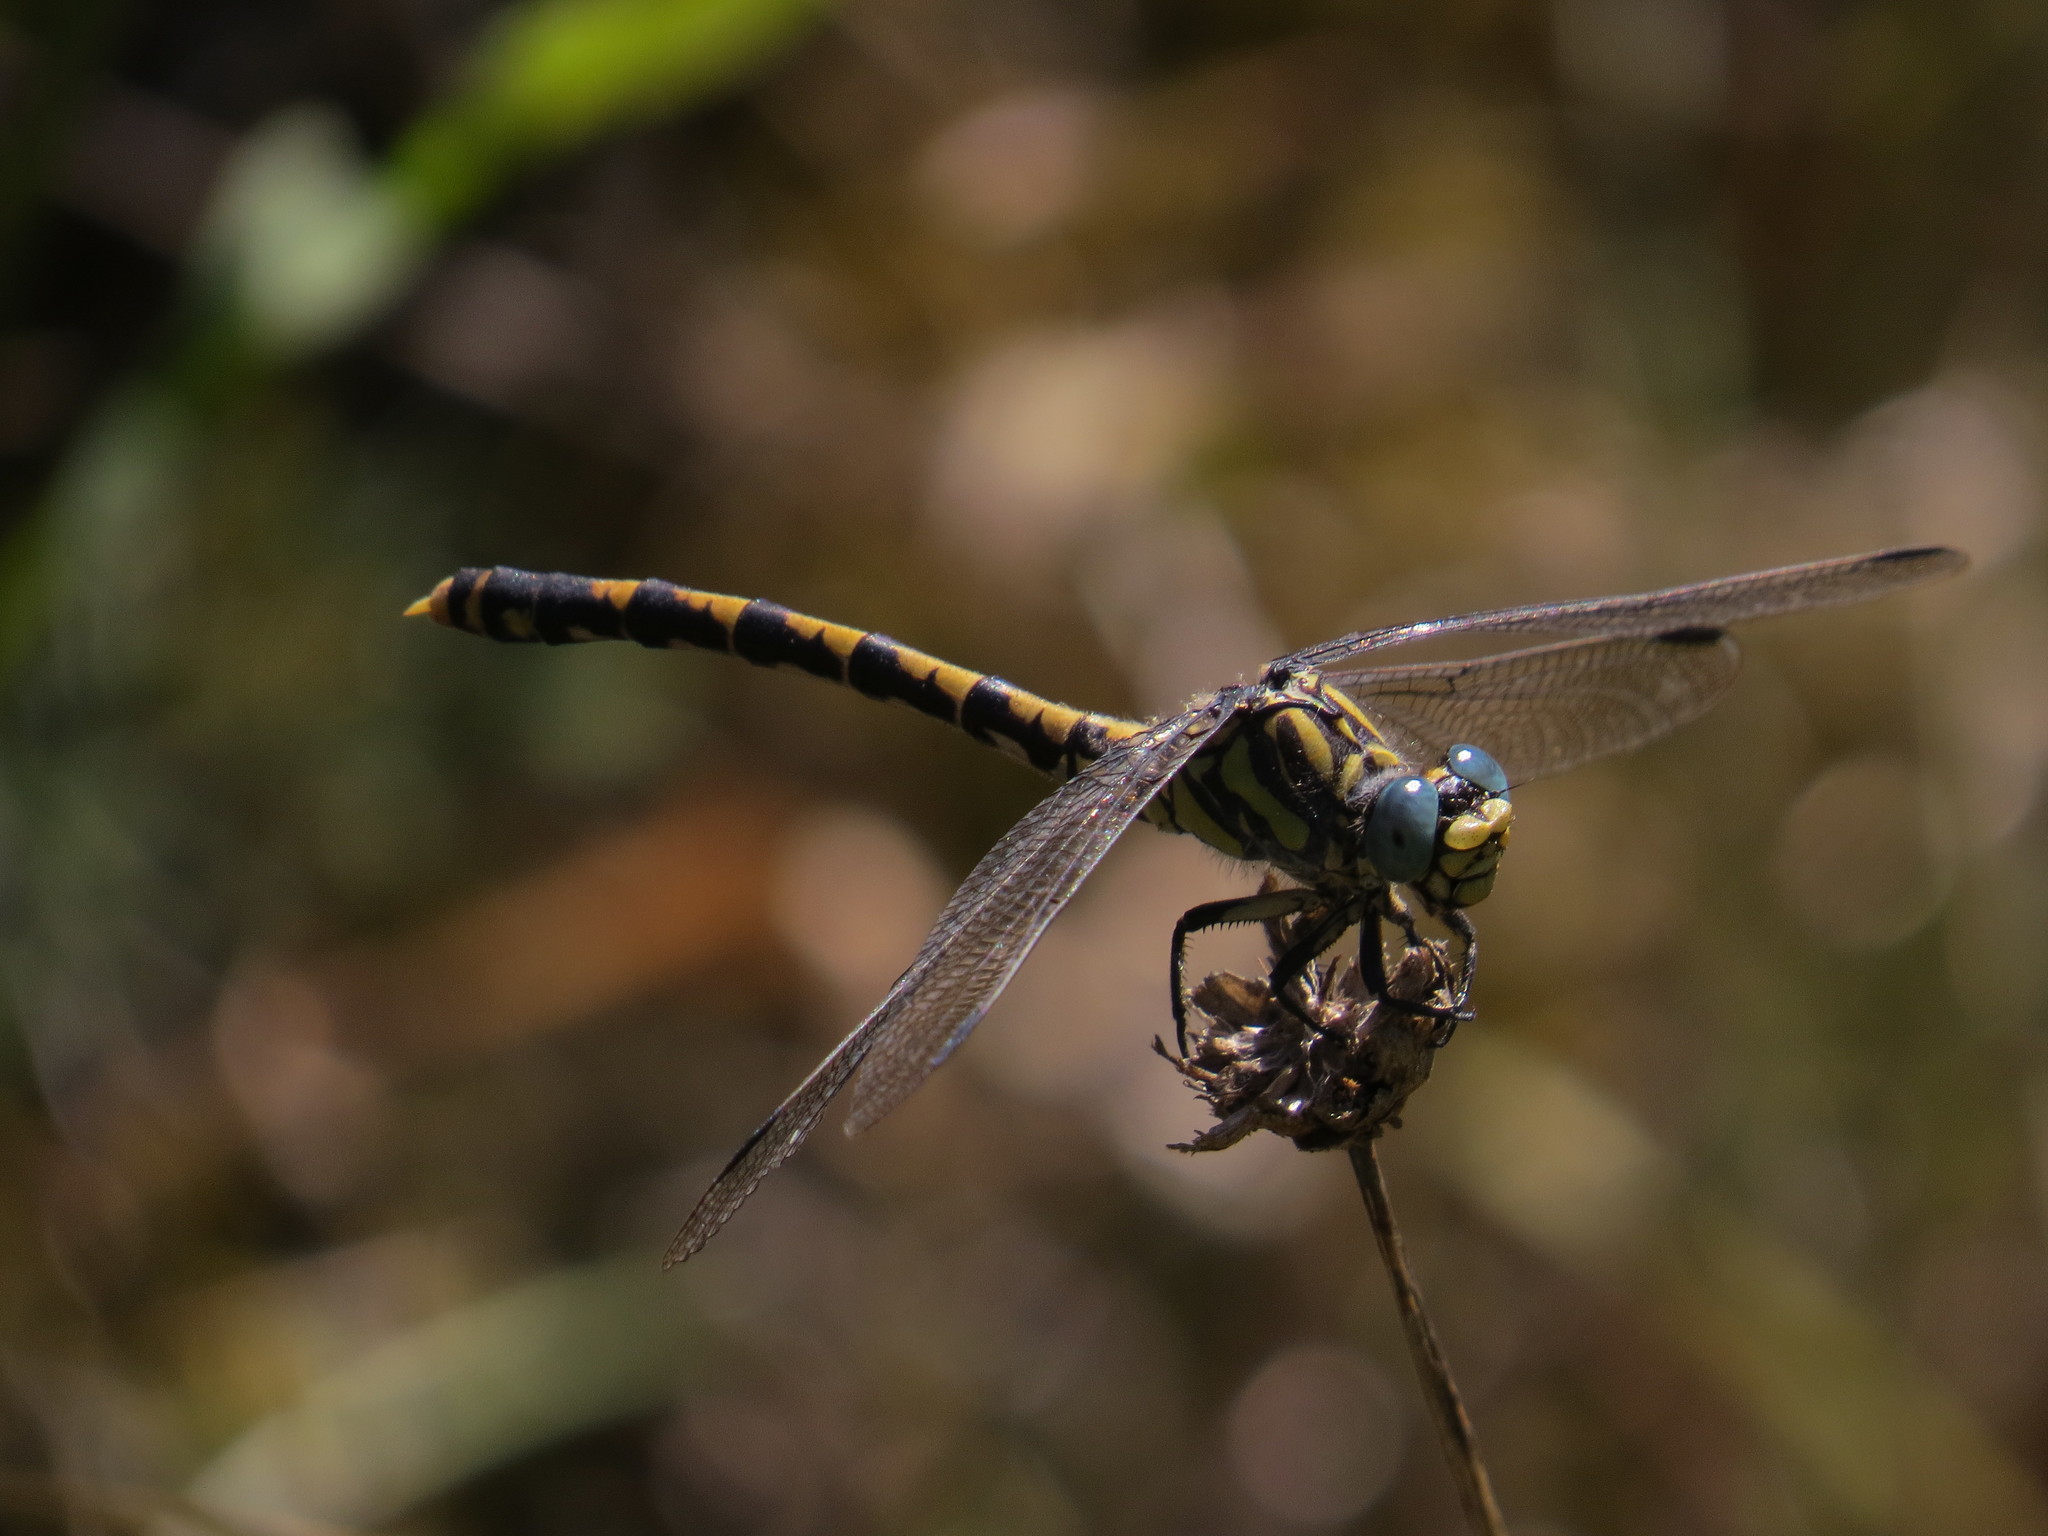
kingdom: Animalia
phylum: Arthropoda
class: Insecta
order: Odonata
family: Gomphidae
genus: Onychogomphus
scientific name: Onychogomphus uncatus
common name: Large pincertail
